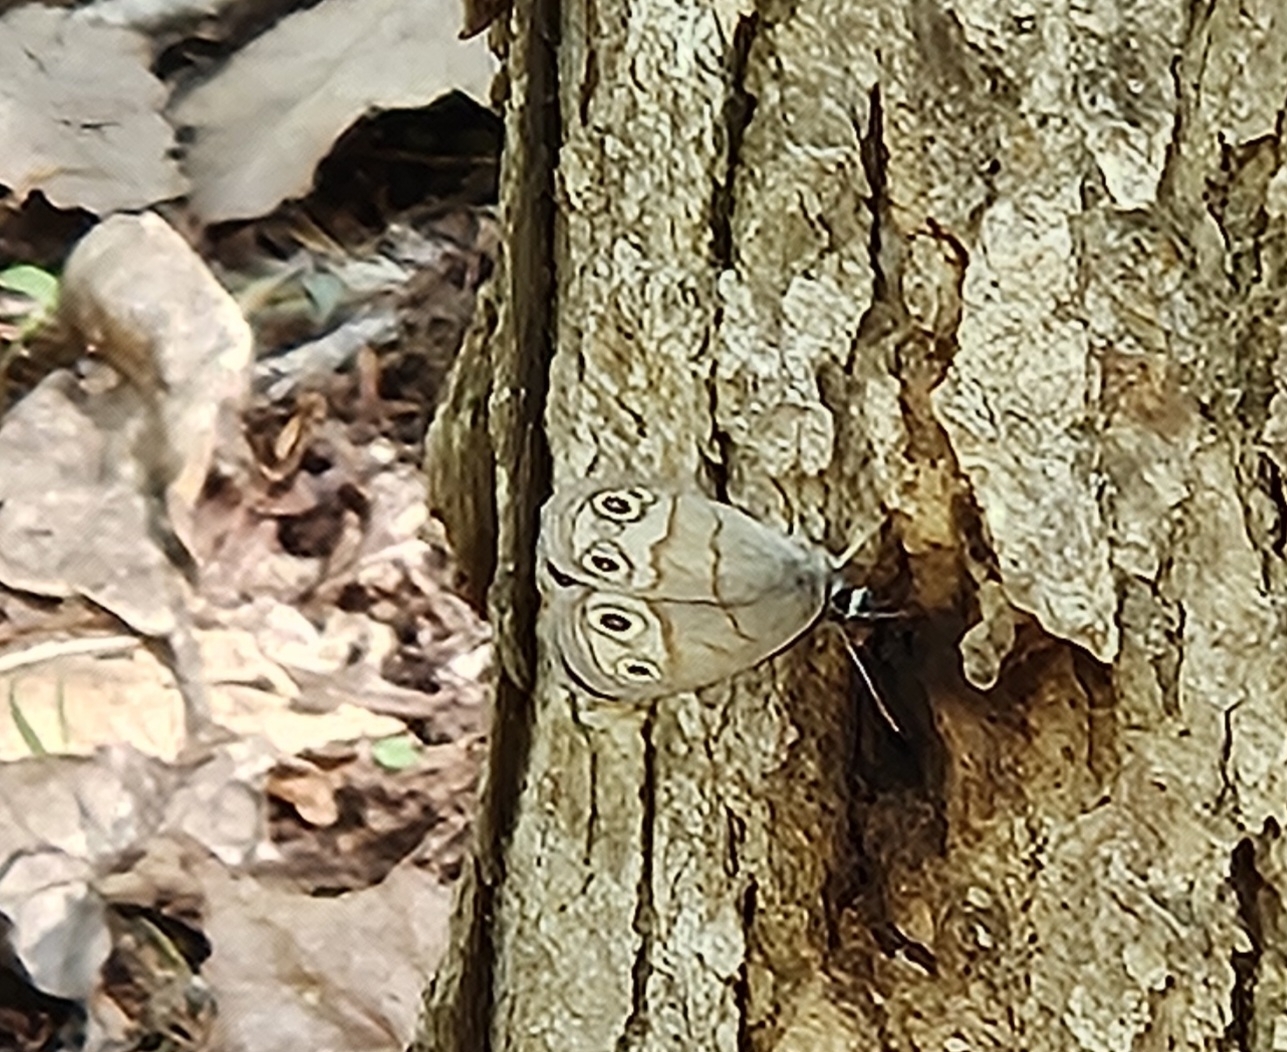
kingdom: Animalia
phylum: Arthropoda
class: Insecta
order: Lepidoptera
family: Nymphalidae
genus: Euptychia
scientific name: Euptychia cymela
